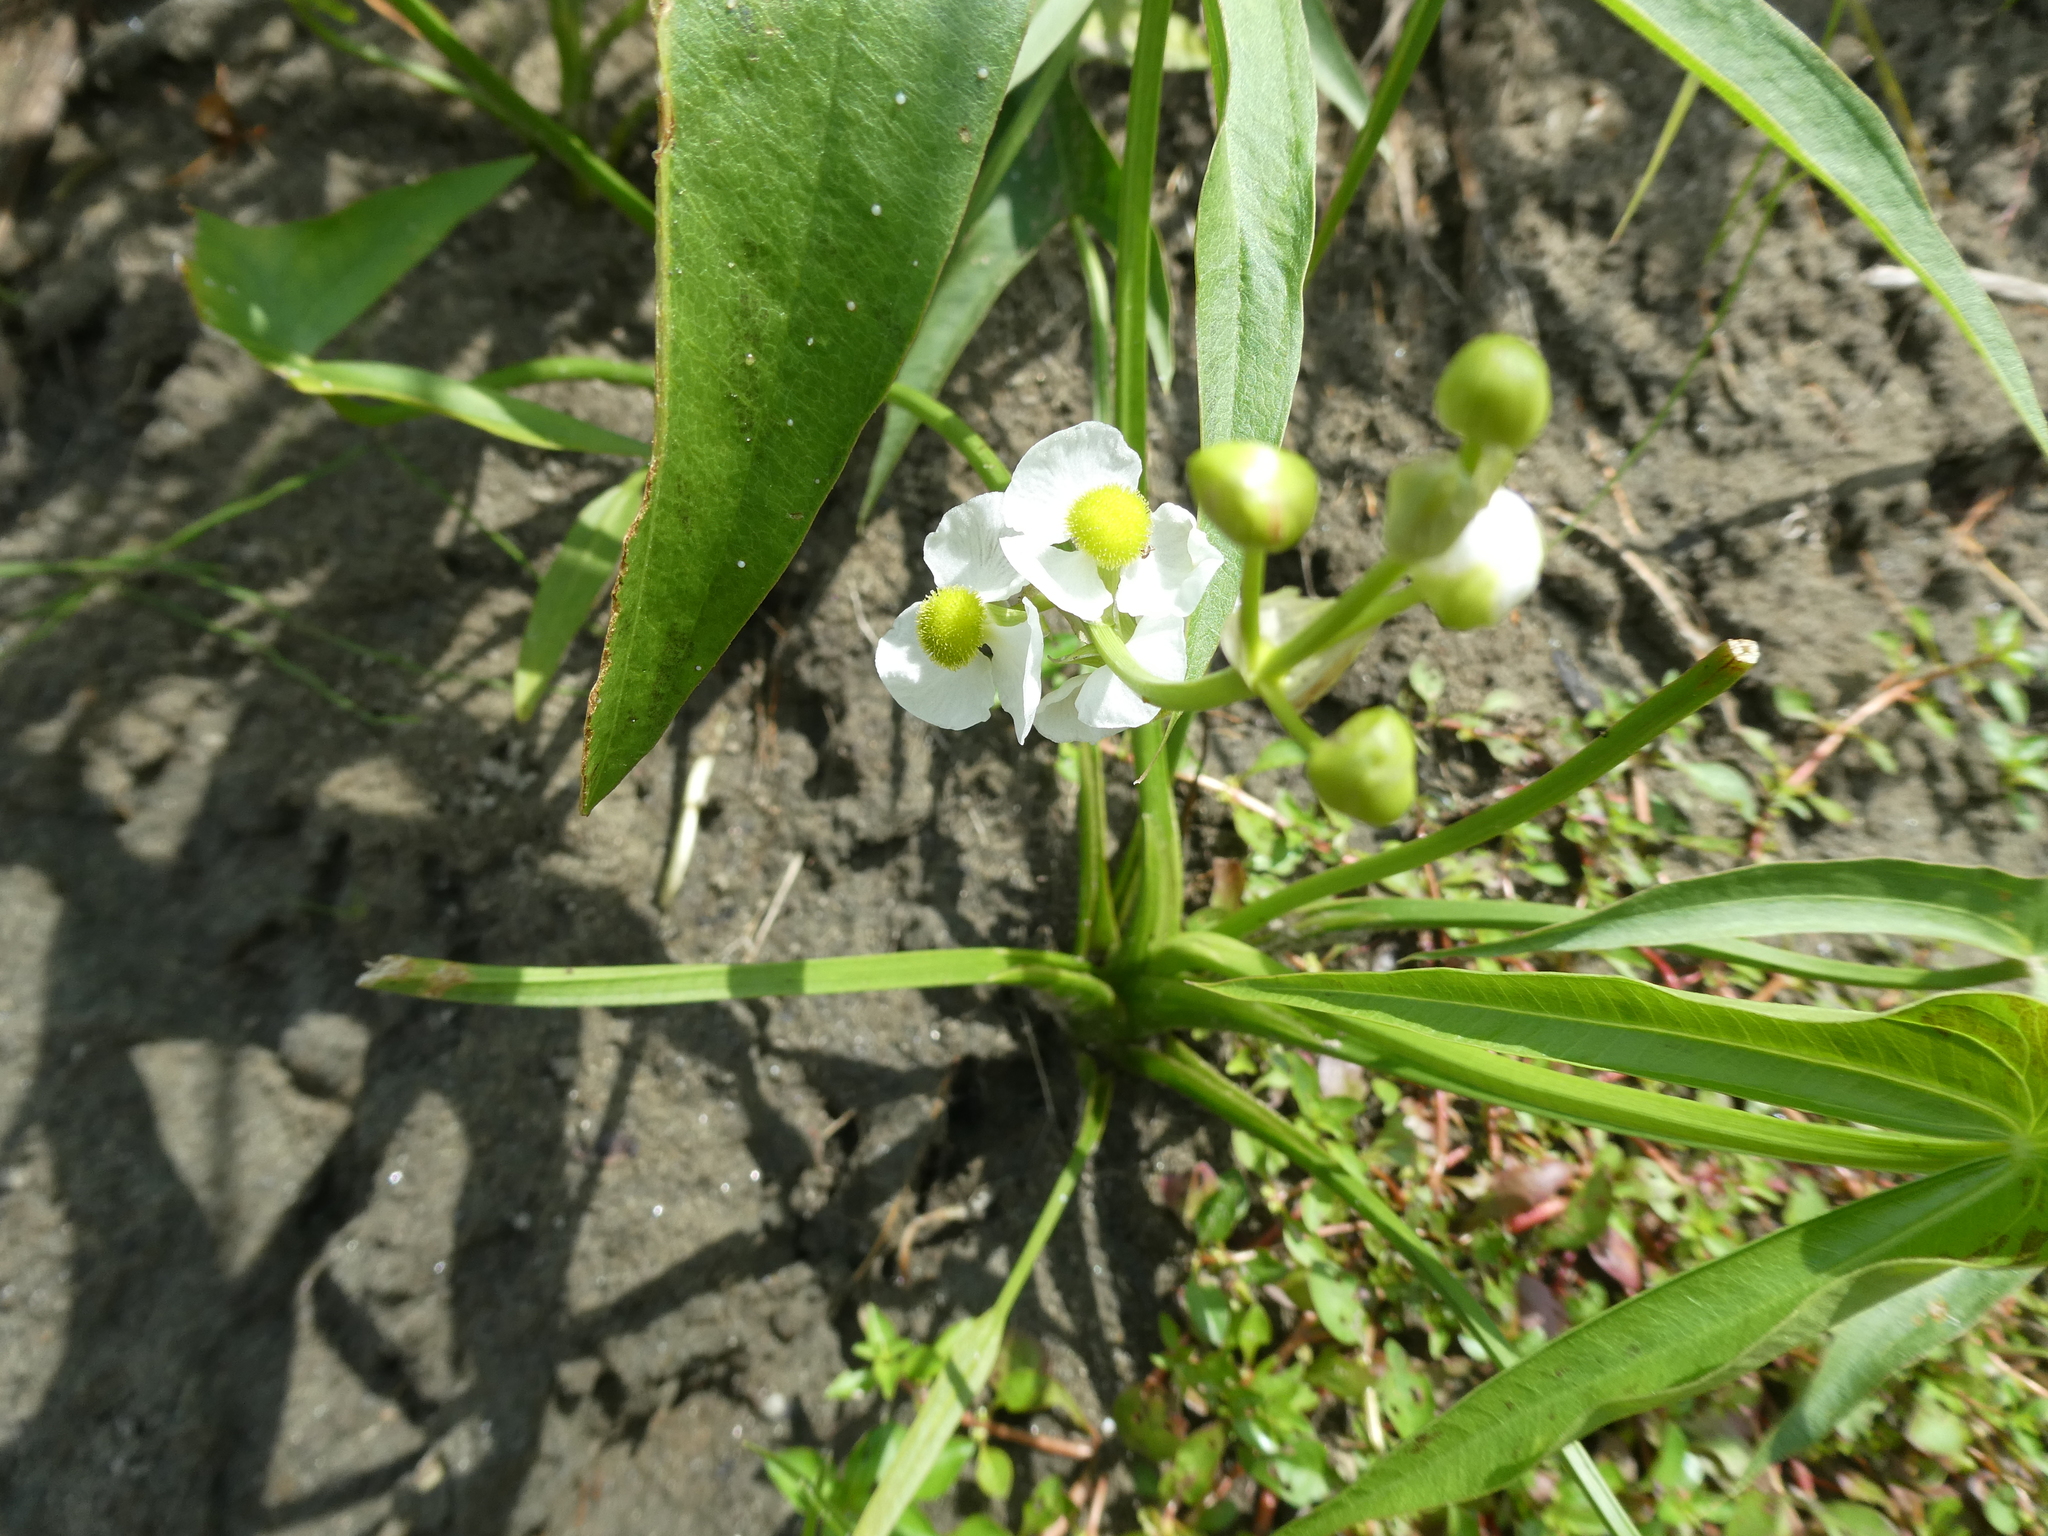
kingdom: Plantae
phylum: Tracheophyta
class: Liliopsida
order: Alismatales
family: Alismataceae
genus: Sagittaria
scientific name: Sagittaria latifolia
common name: Duck-potato
